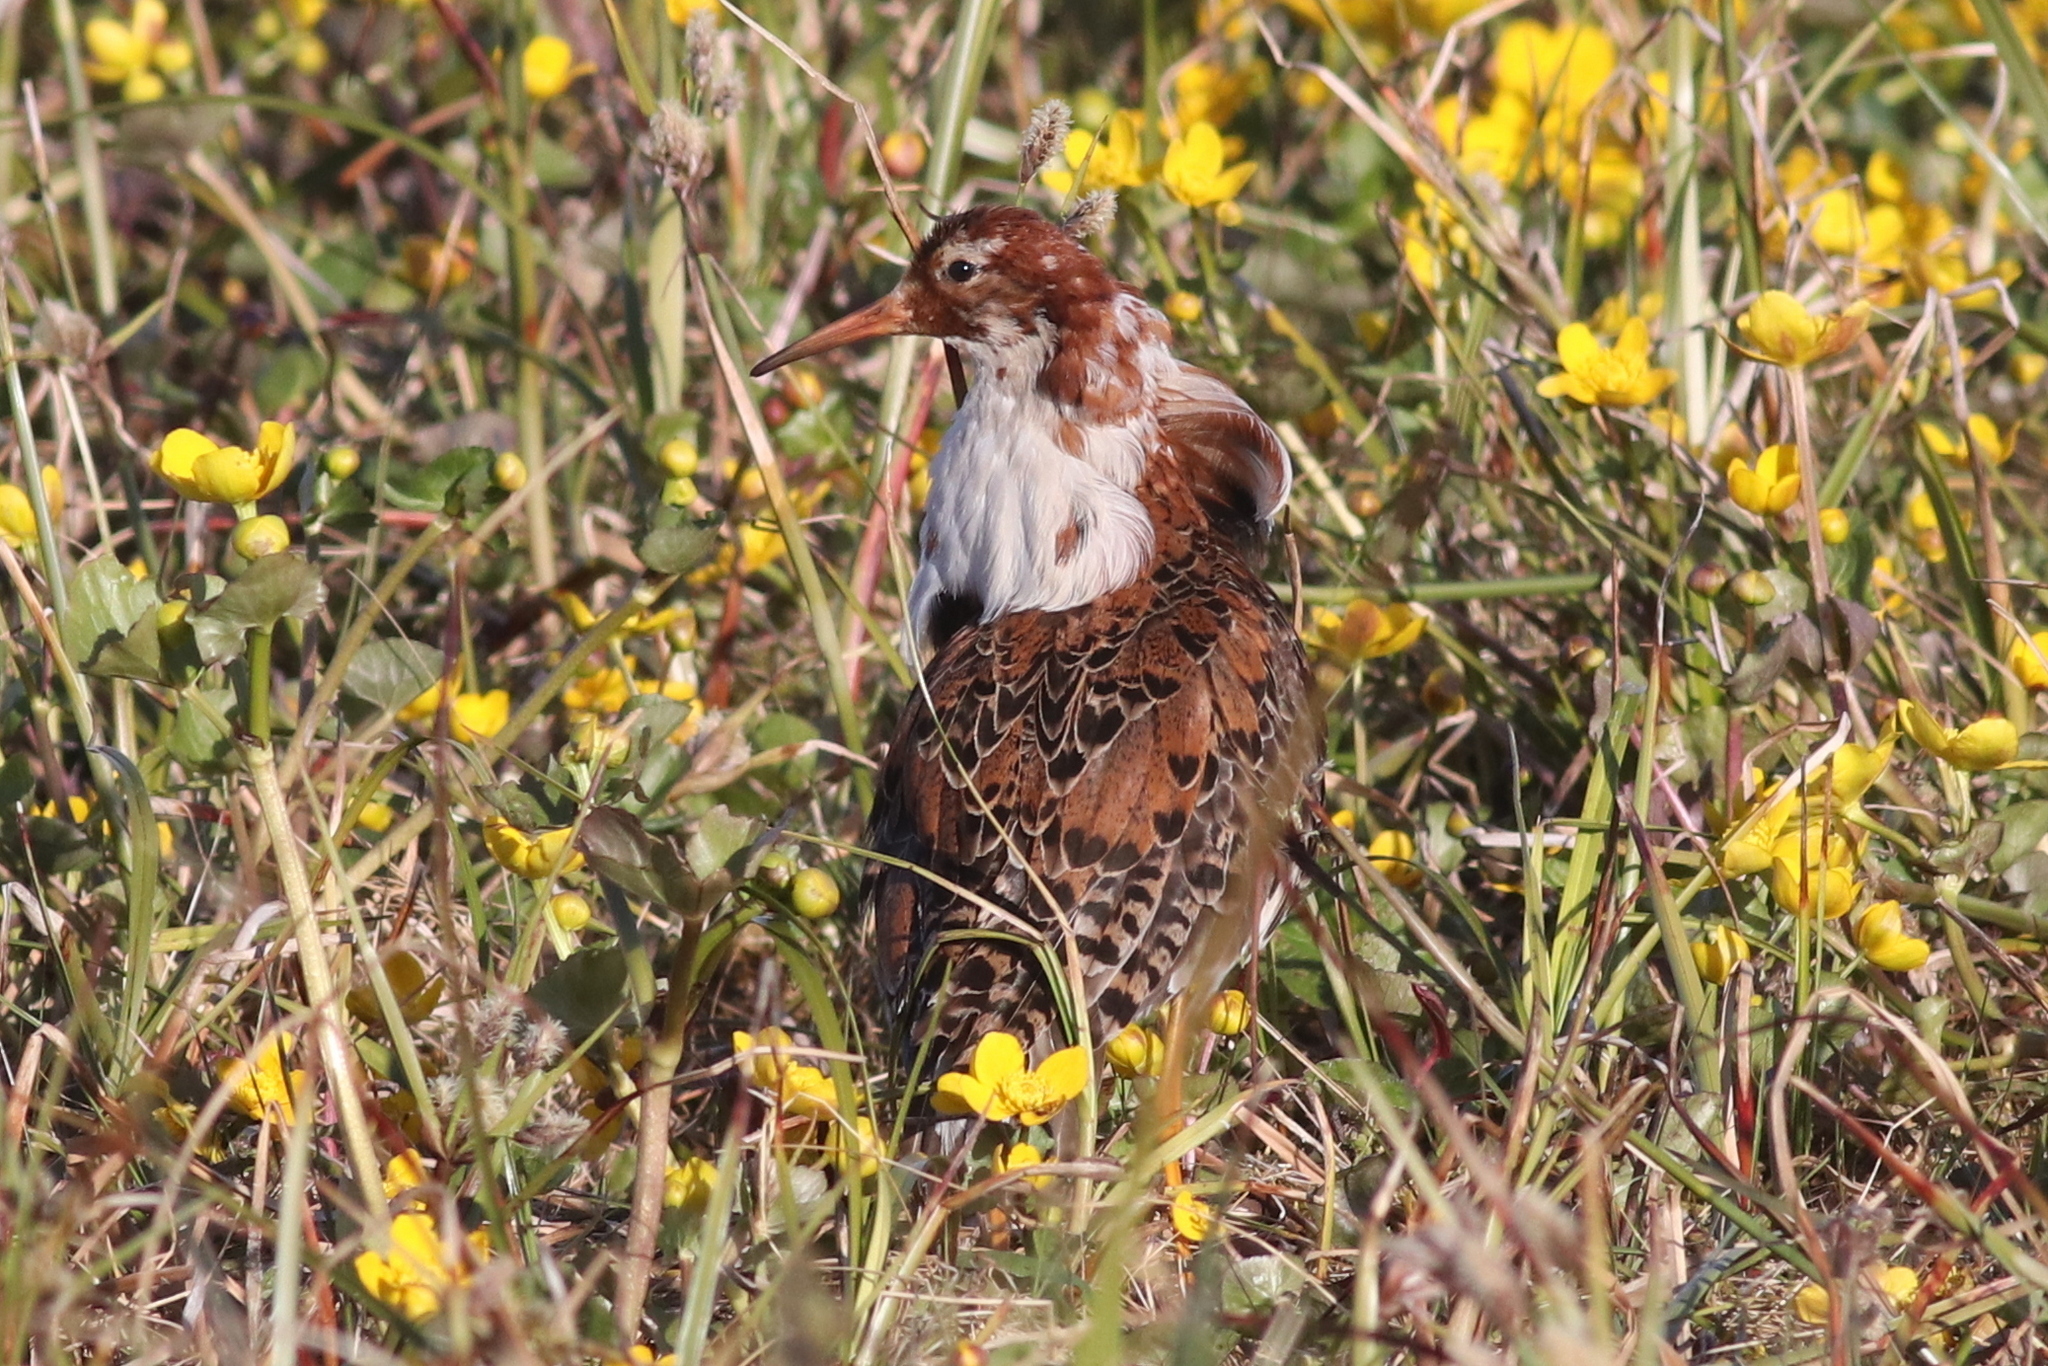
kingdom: Animalia
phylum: Chordata
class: Aves
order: Charadriiformes
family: Scolopacidae
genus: Calidris
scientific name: Calidris pugnax
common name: Ruff
